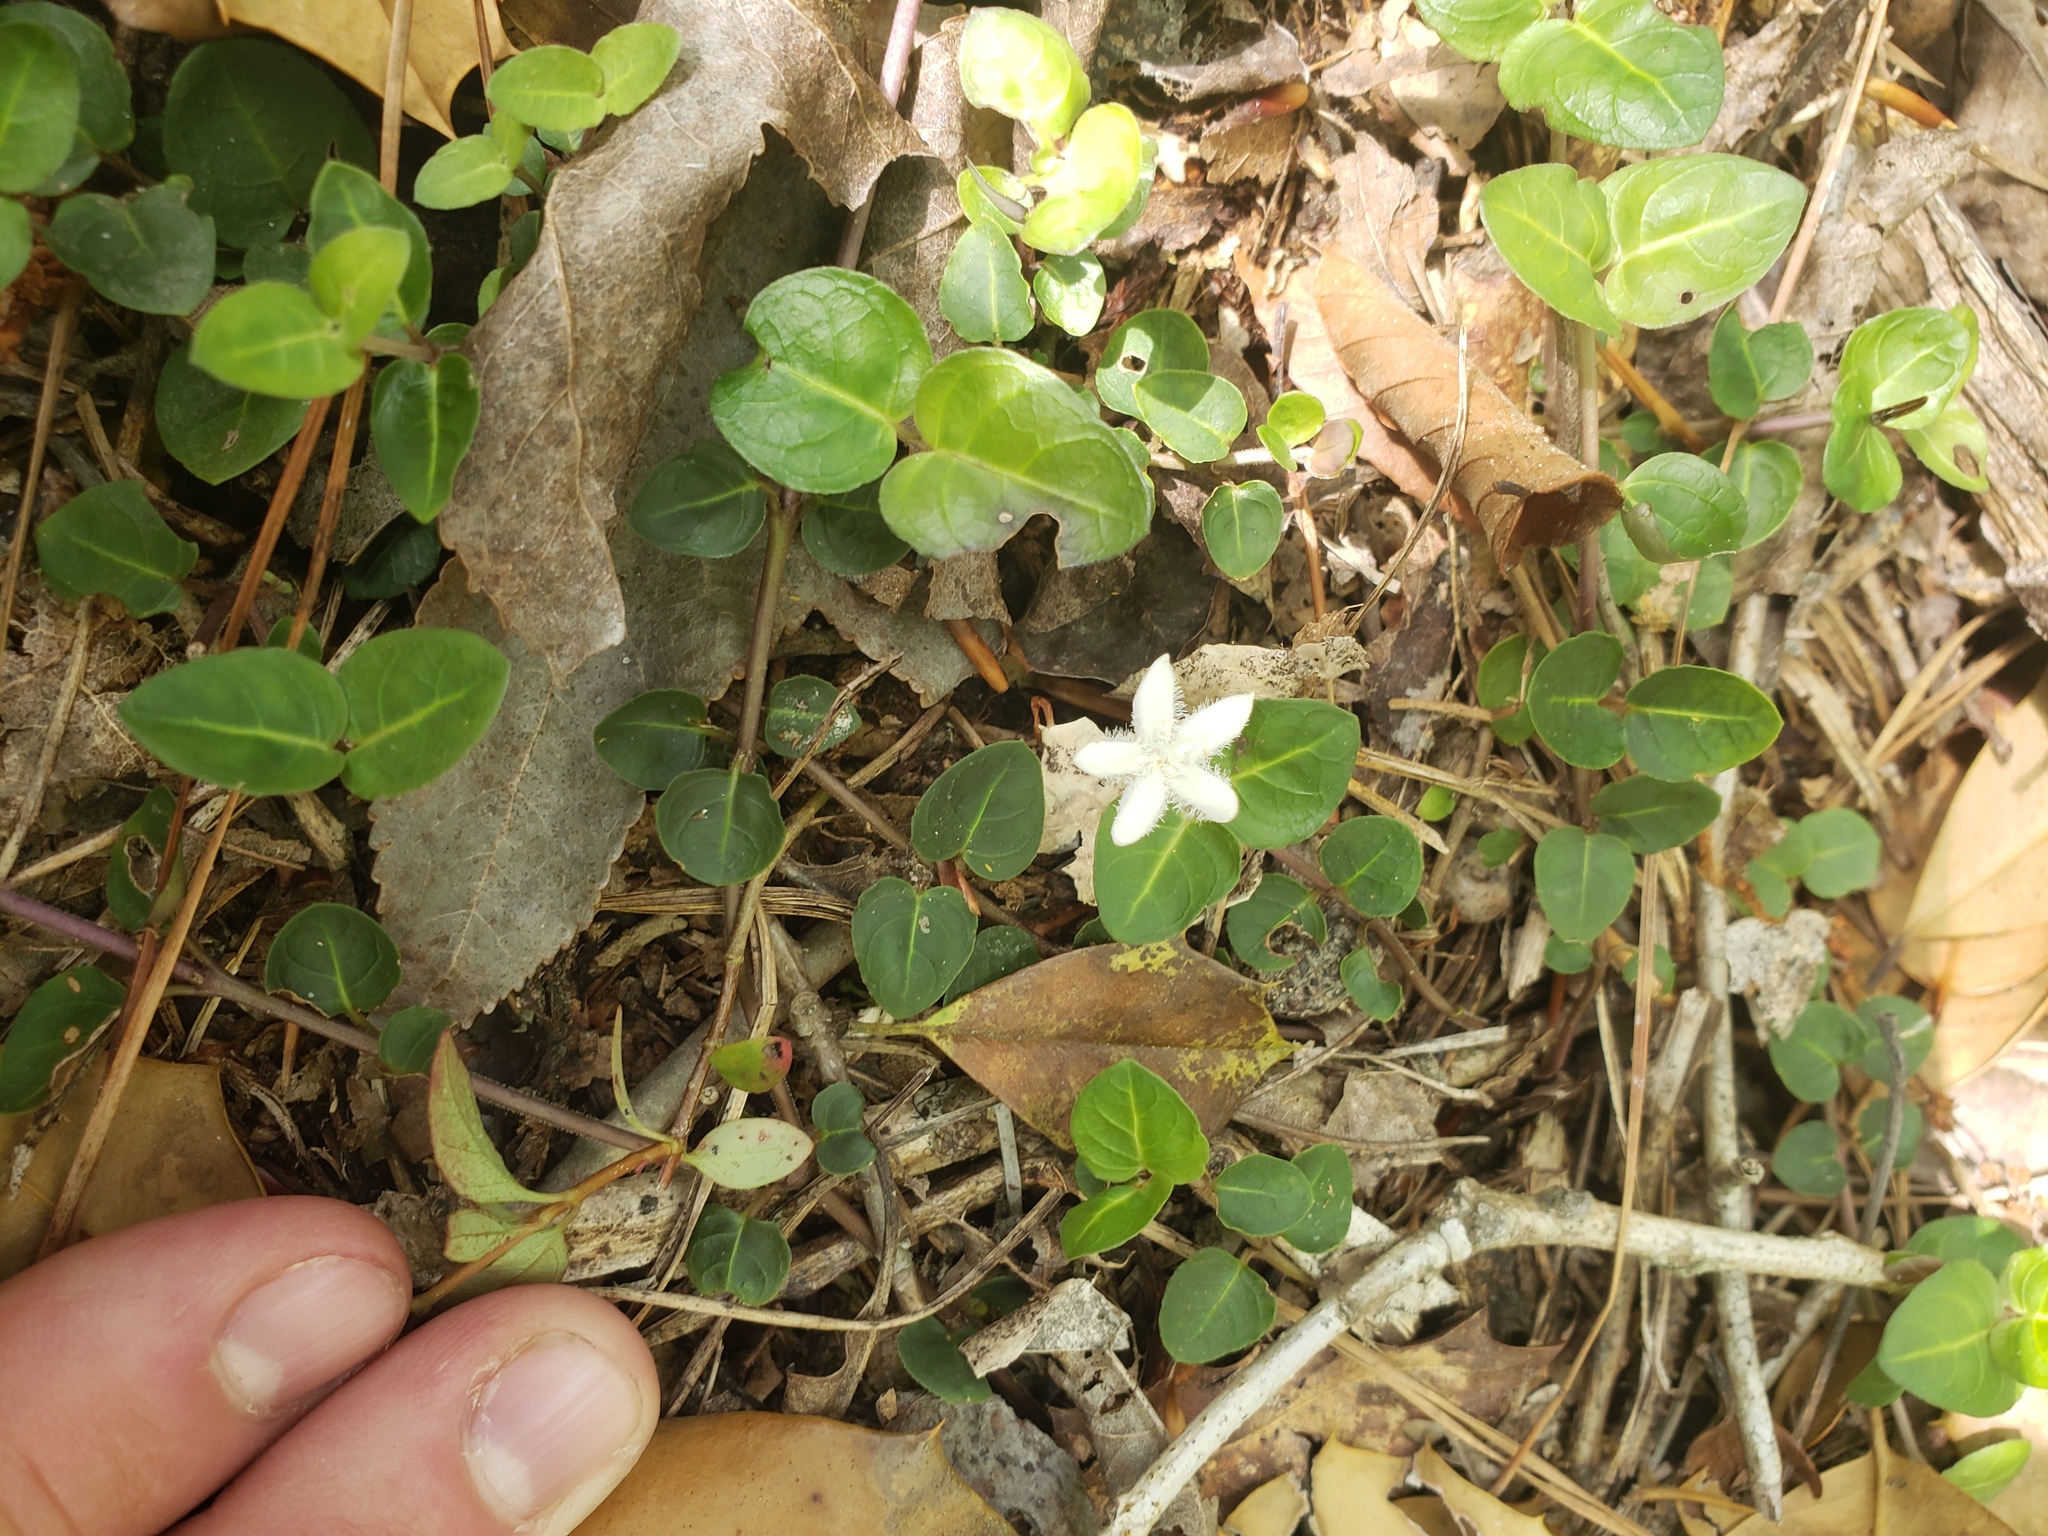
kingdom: Plantae
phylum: Tracheophyta
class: Magnoliopsida
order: Gentianales
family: Rubiaceae
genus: Mitchella
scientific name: Mitchella repens
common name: Partridge-berry
